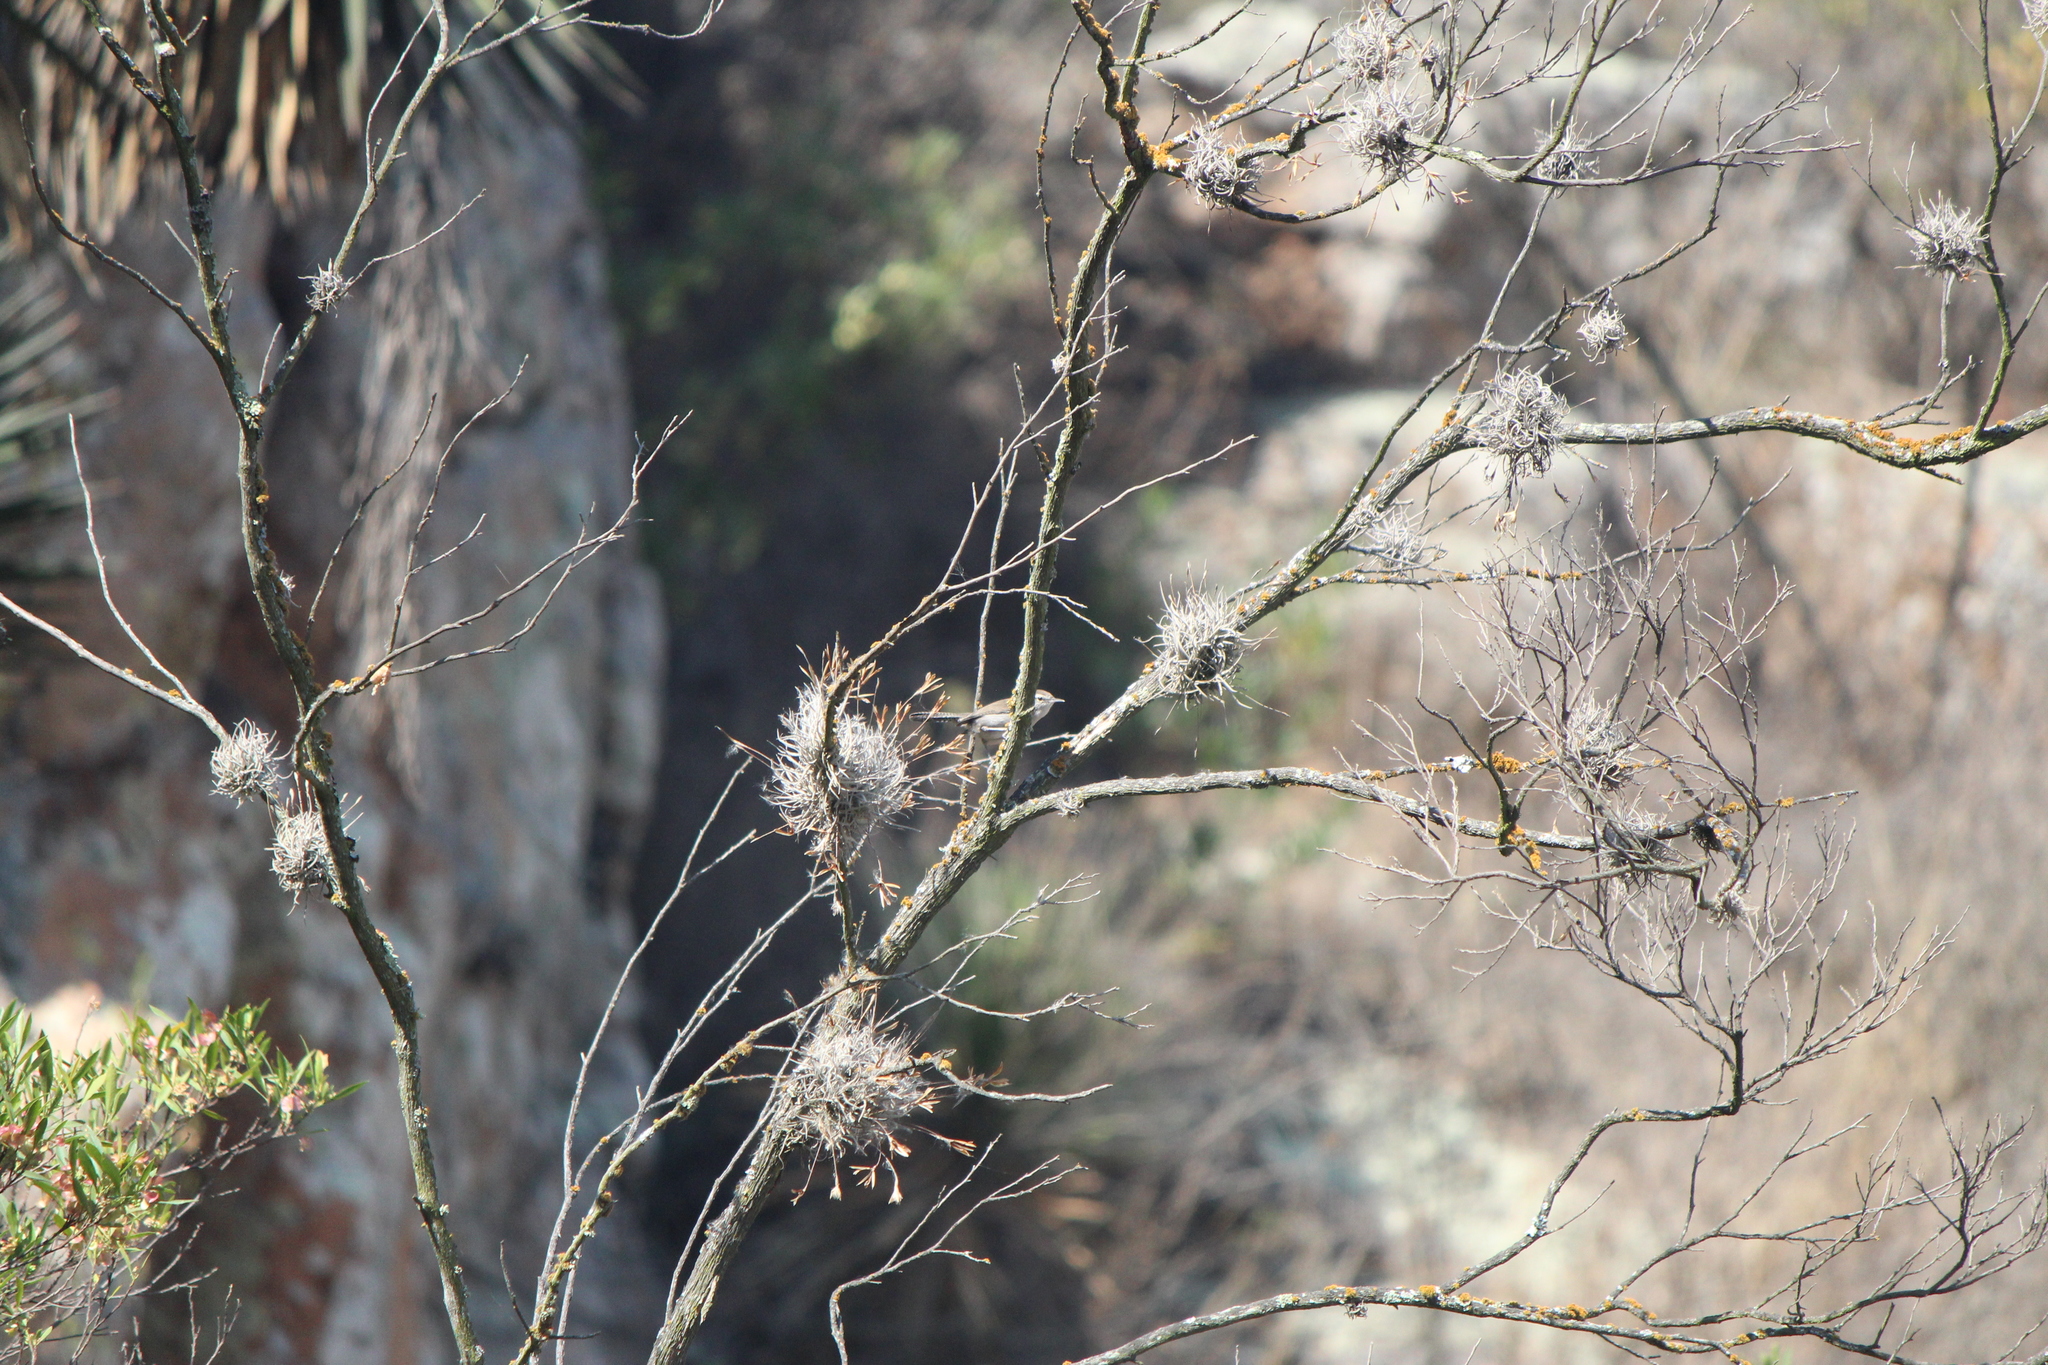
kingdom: Animalia
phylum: Chordata
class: Aves
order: Passeriformes
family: Troglodytidae
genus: Thryomanes
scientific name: Thryomanes bewickii
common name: Bewick's wren
